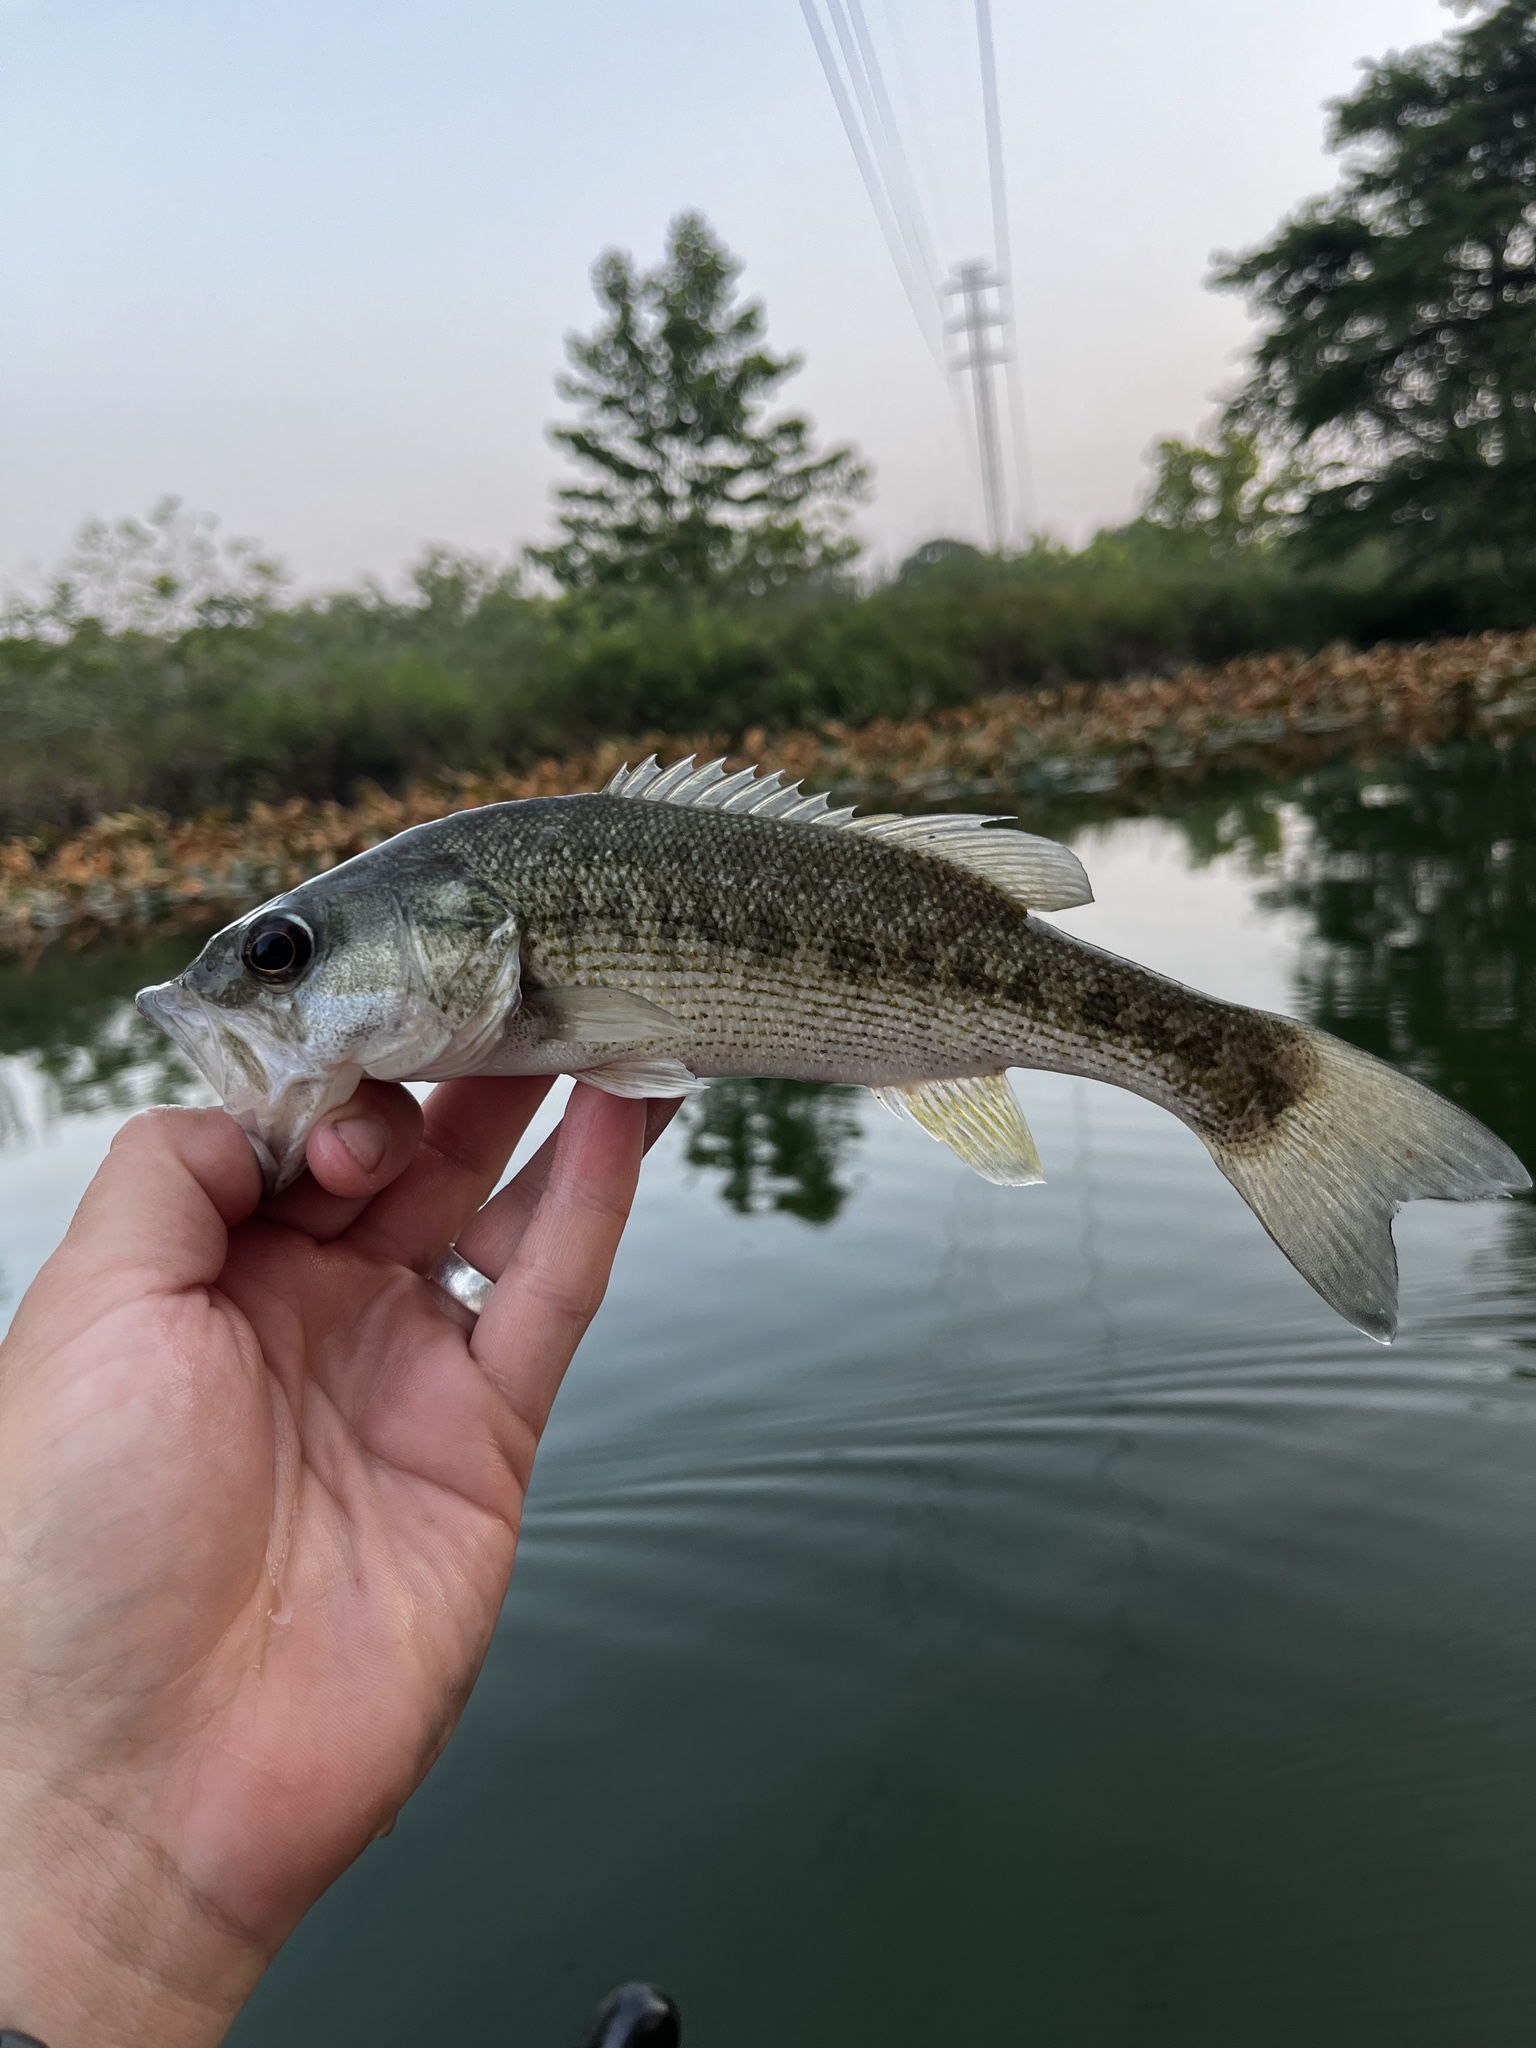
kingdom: Animalia
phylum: Chordata
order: Perciformes
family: Centrarchidae
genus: Micropterus
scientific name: Micropterus treculii
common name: Guadalupe bass
